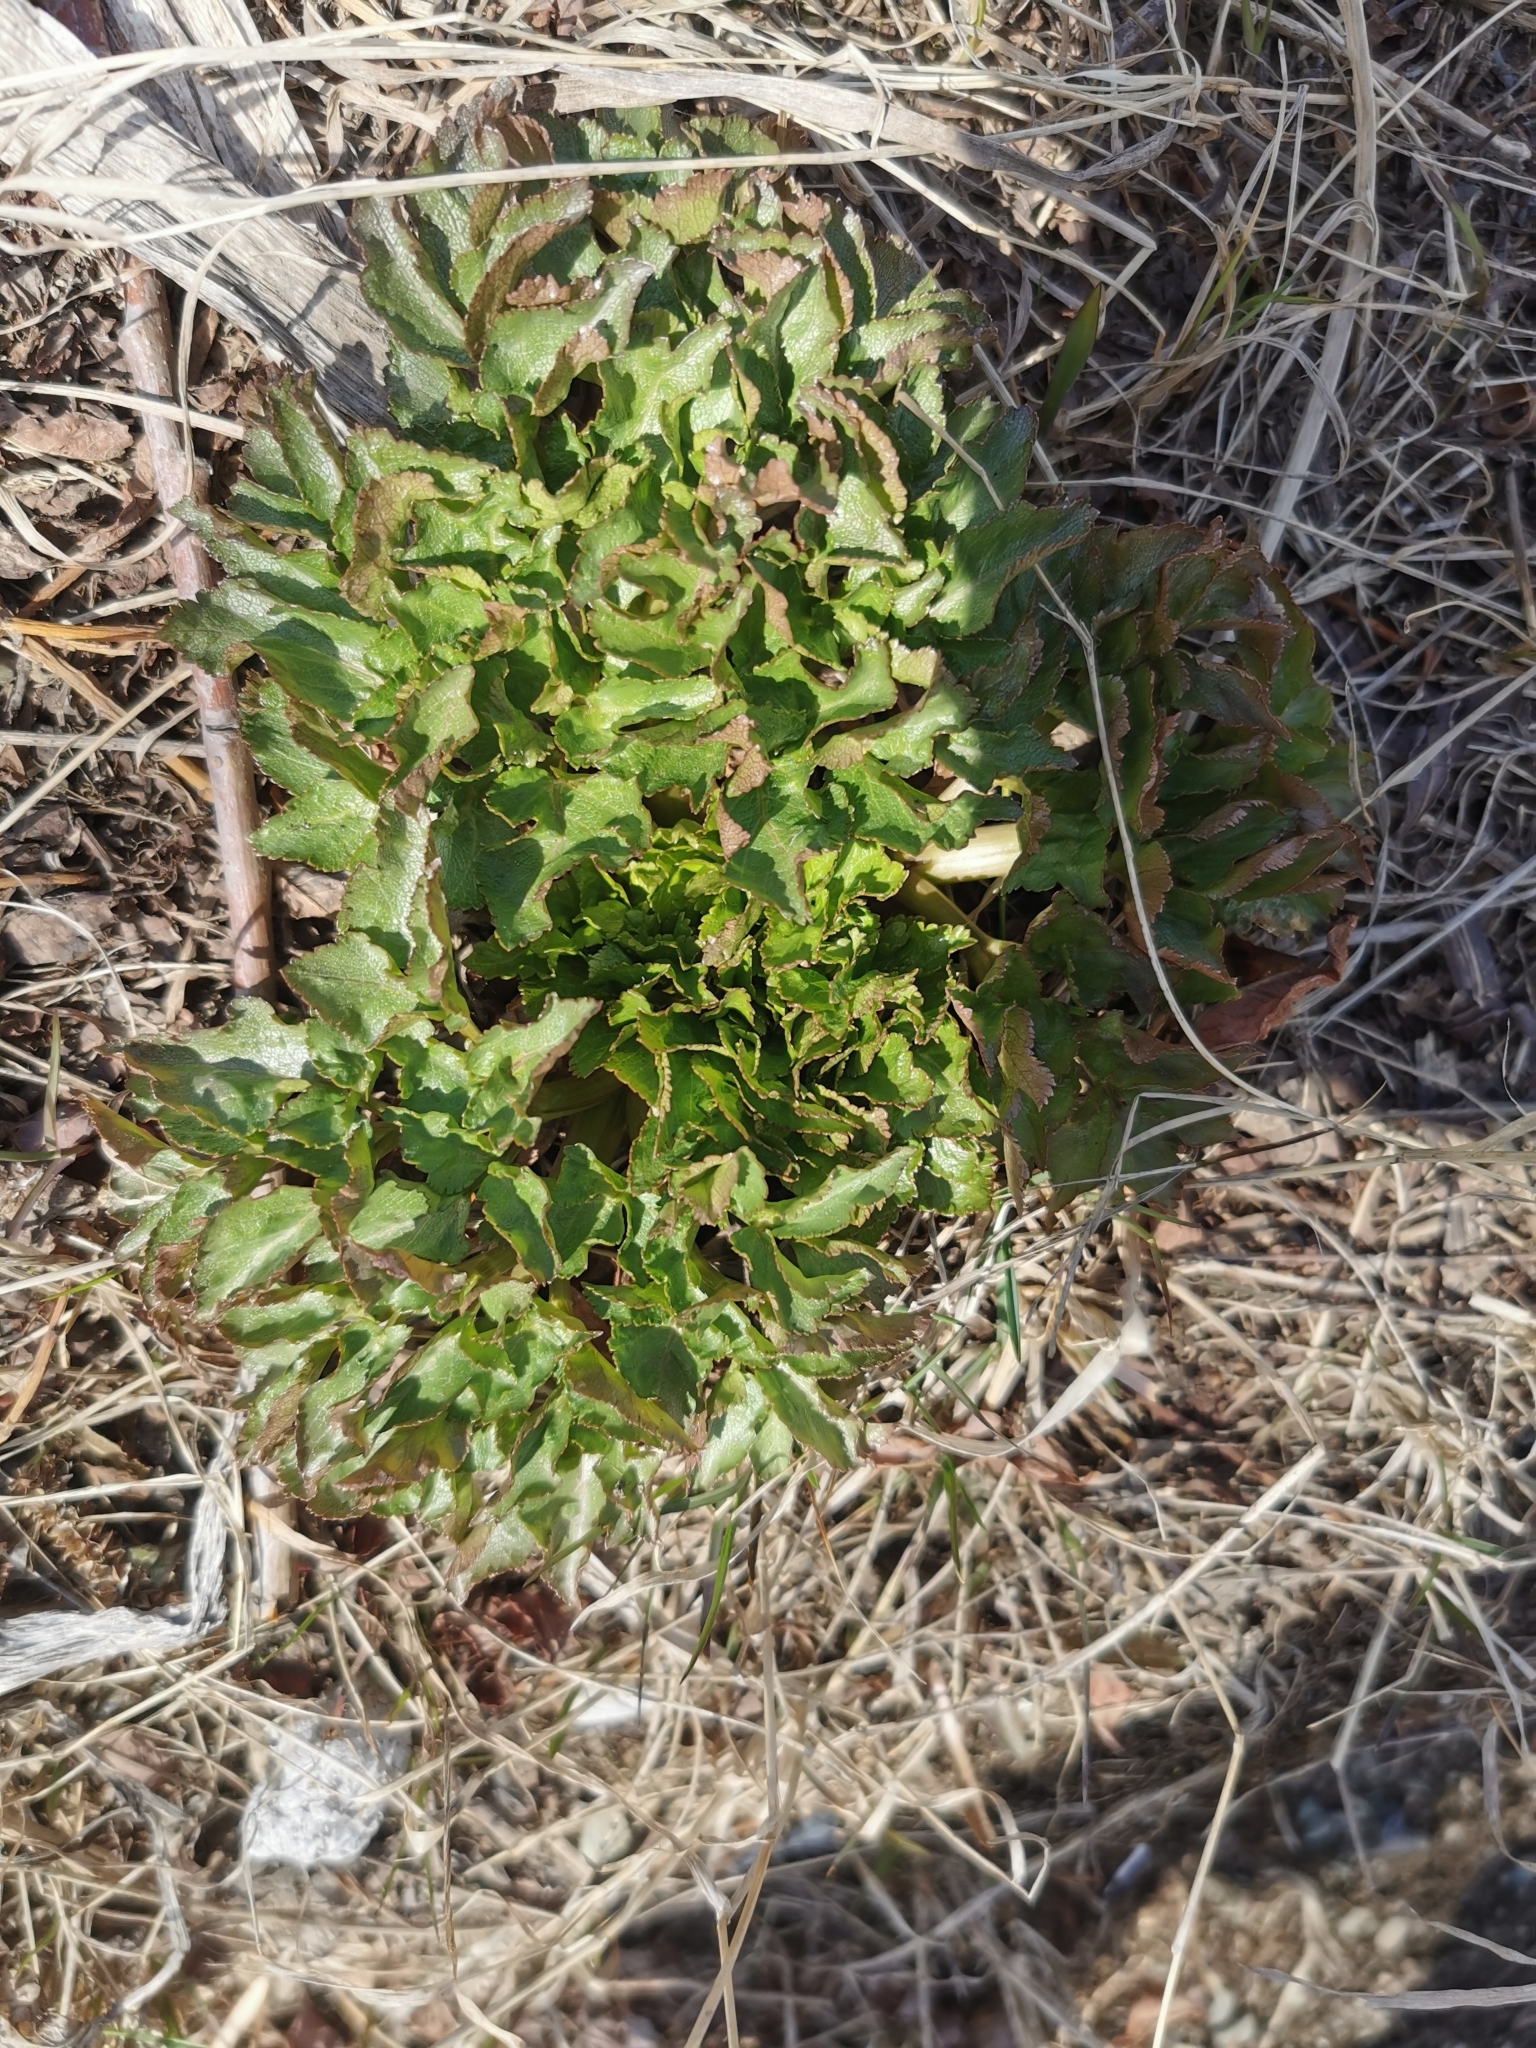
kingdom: Plantae
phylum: Tracheophyta
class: Magnoliopsida
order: Apiales
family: Apiaceae
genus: Angelica
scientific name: Angelica gmelinii
